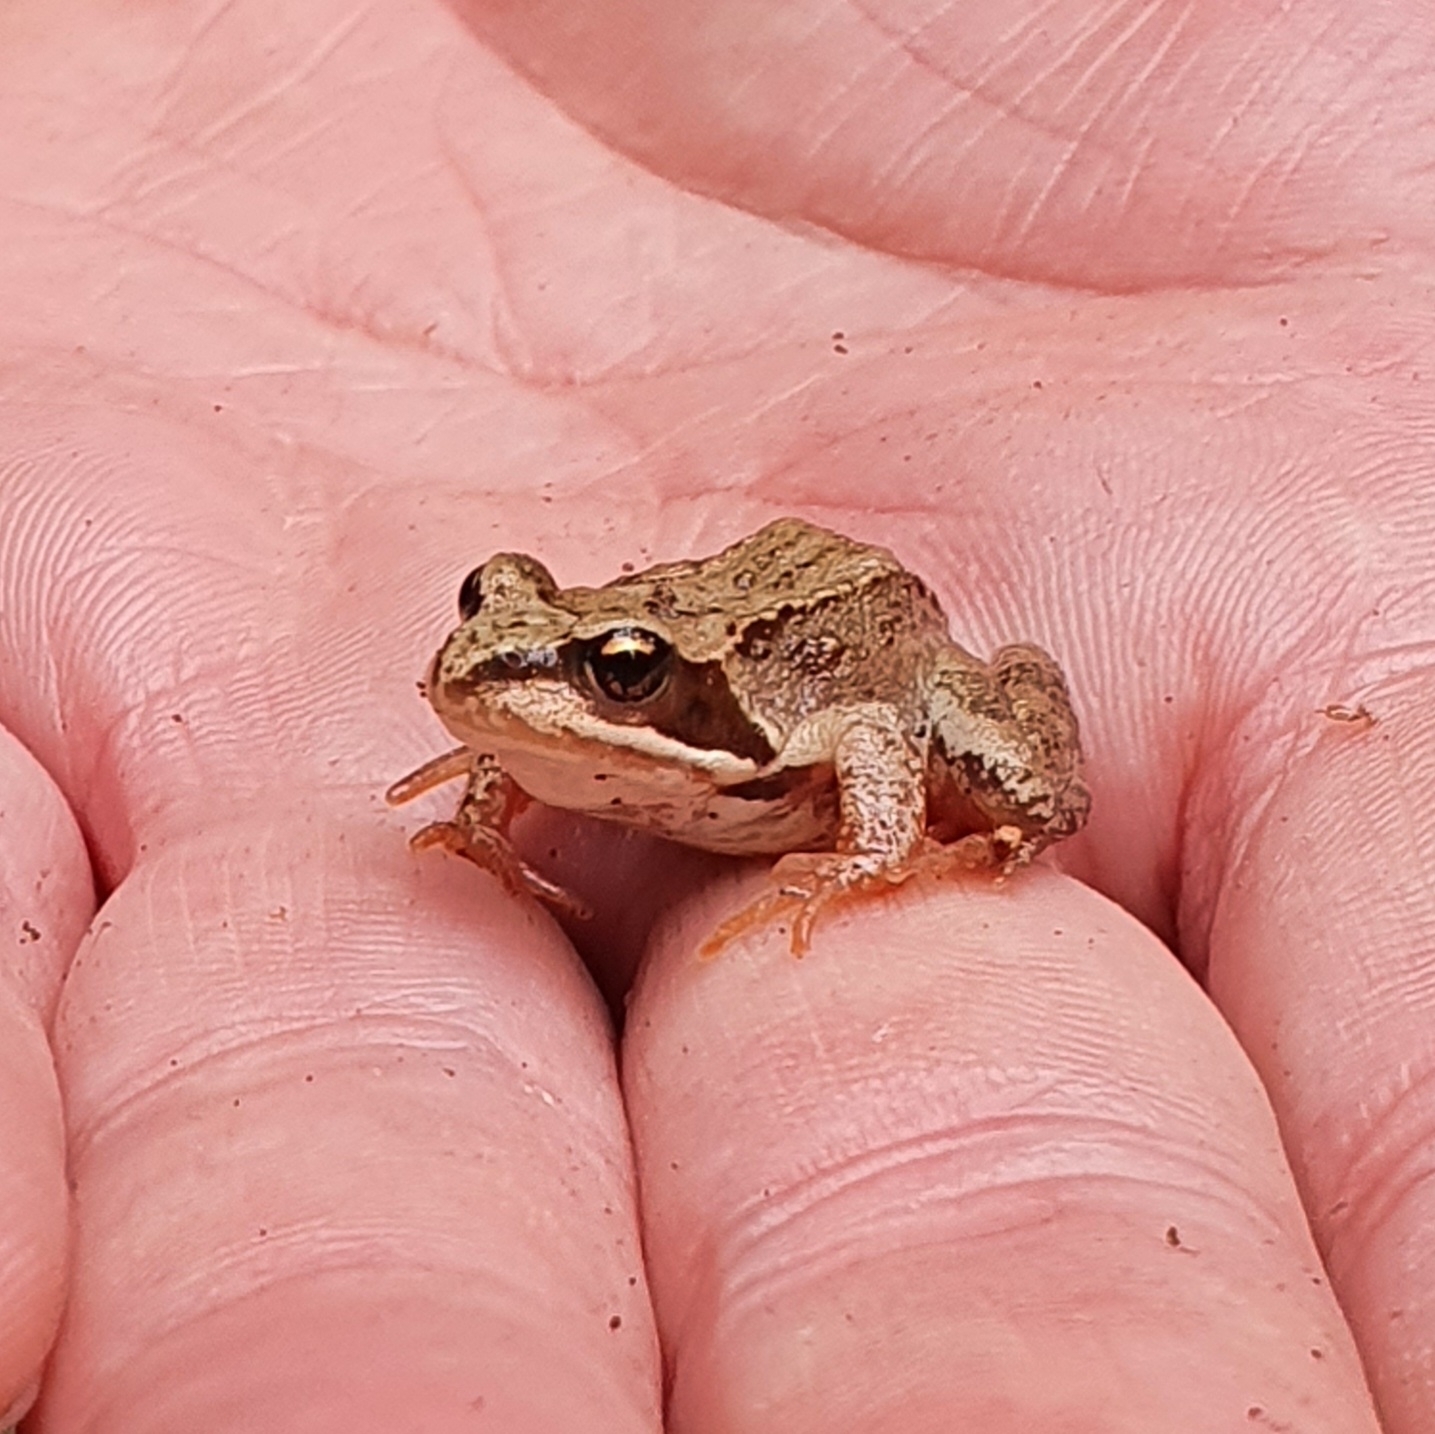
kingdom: Animalia
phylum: Chordata
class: Amphibia
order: Anura
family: Ranidae
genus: Rana
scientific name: Rana temporaria
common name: Common frog
